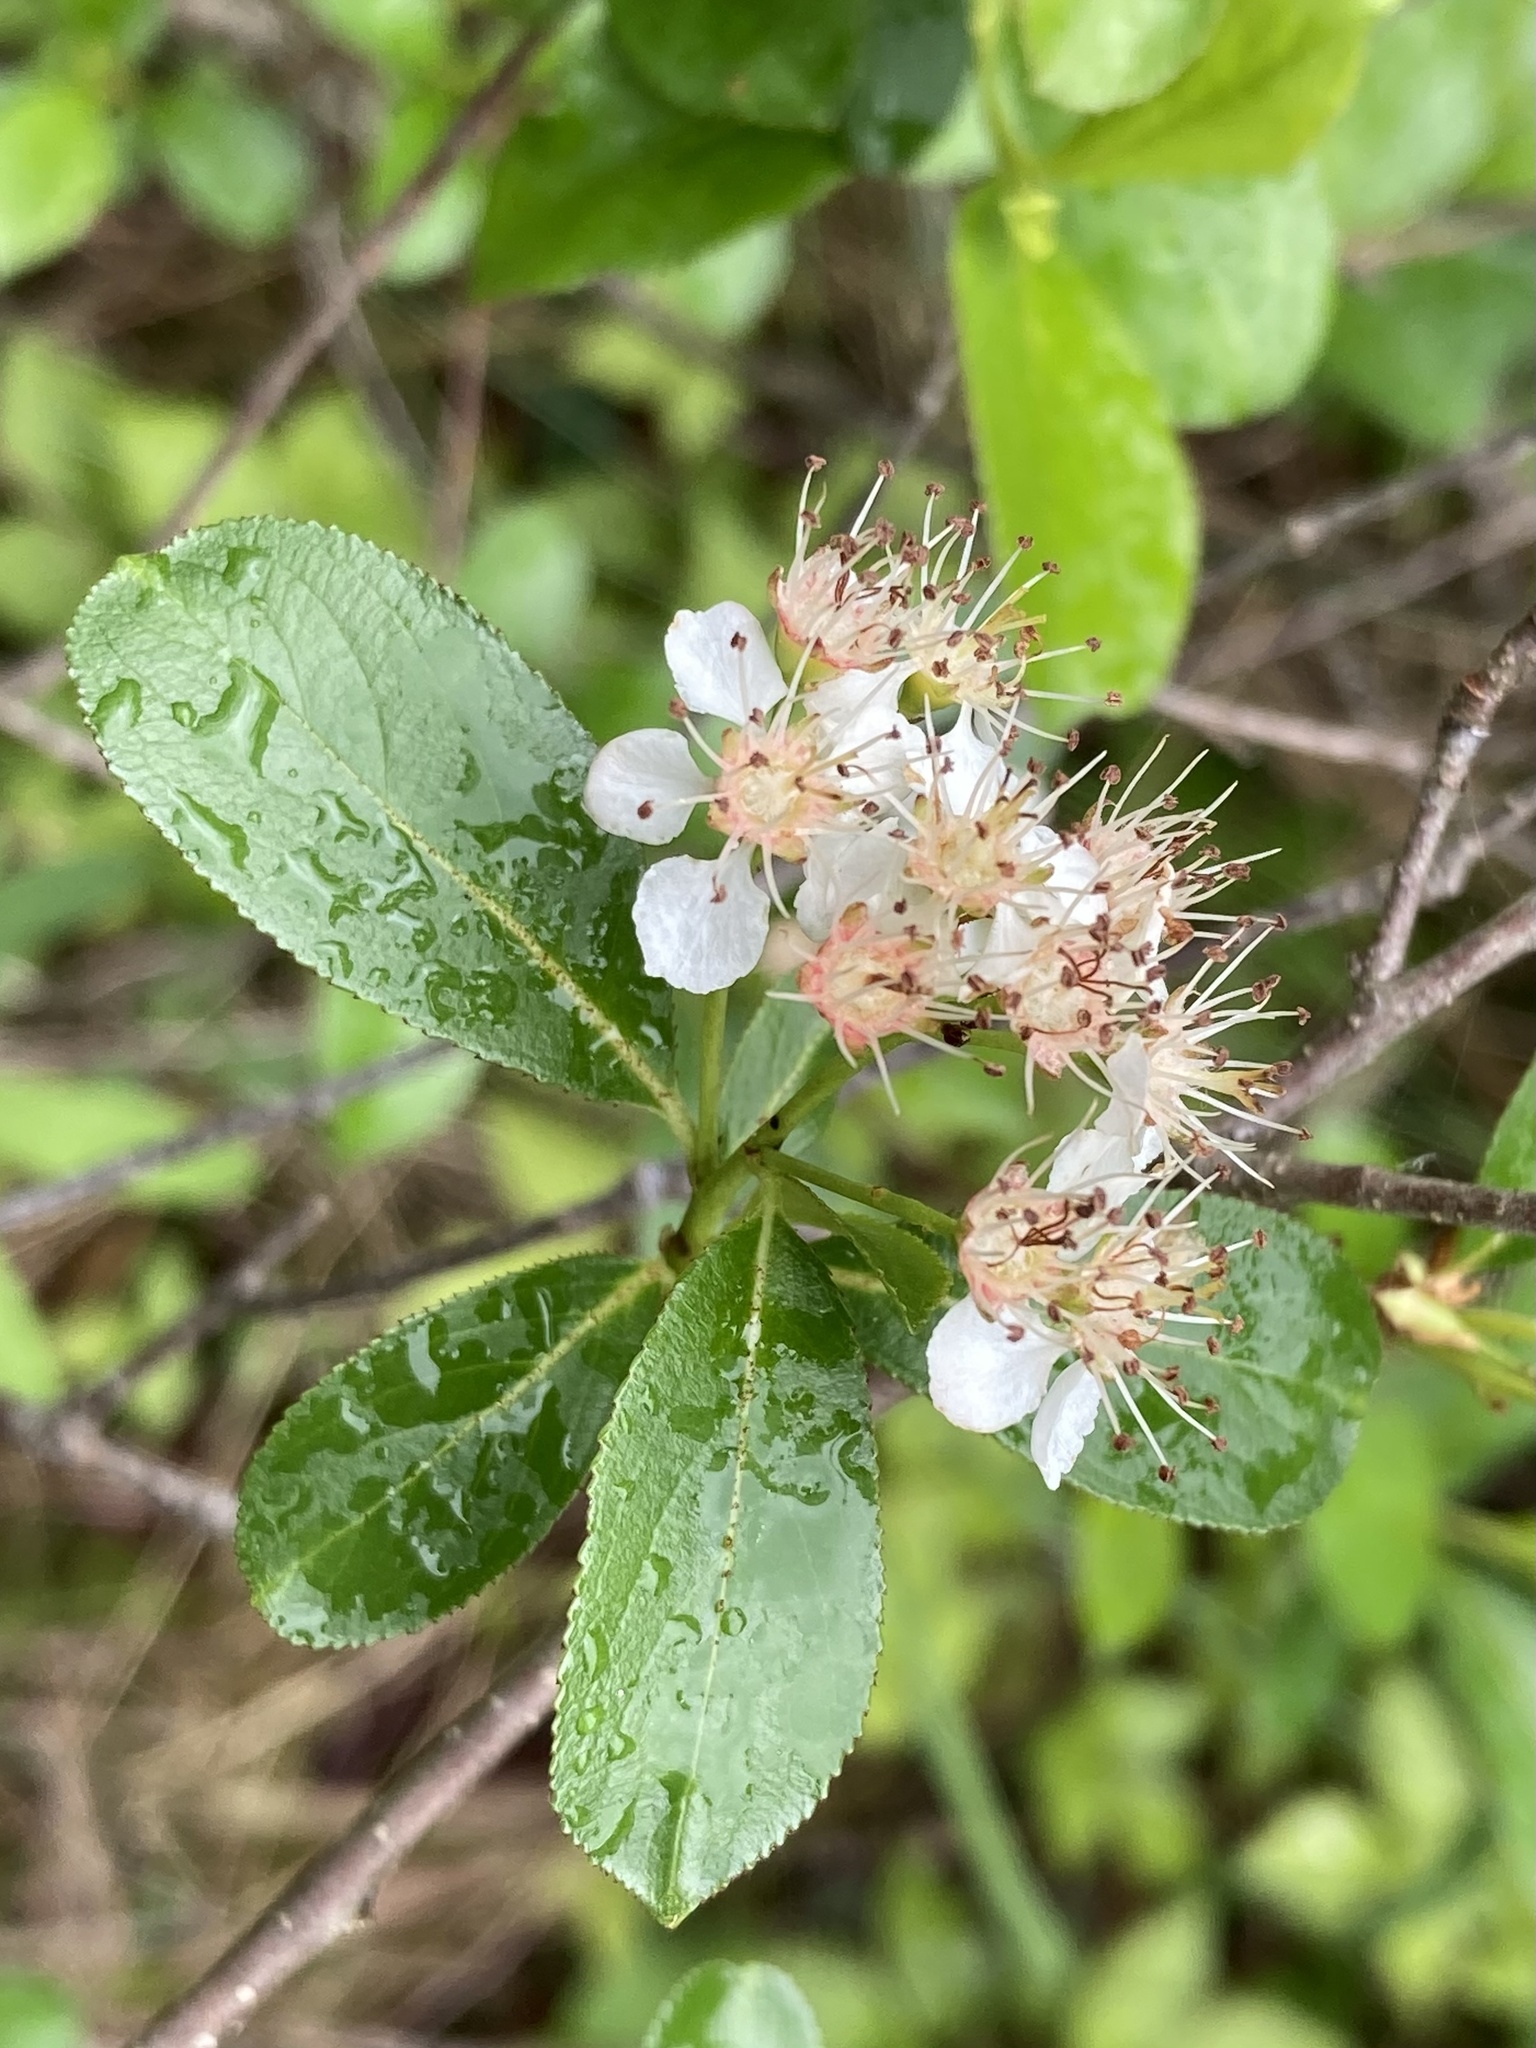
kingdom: Plantae
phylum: Tracheophyta
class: Magnoliopsida
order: Rosales
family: Rosaceae
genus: Aronia
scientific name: Aronia melanocarpa
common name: Black chokeberry
